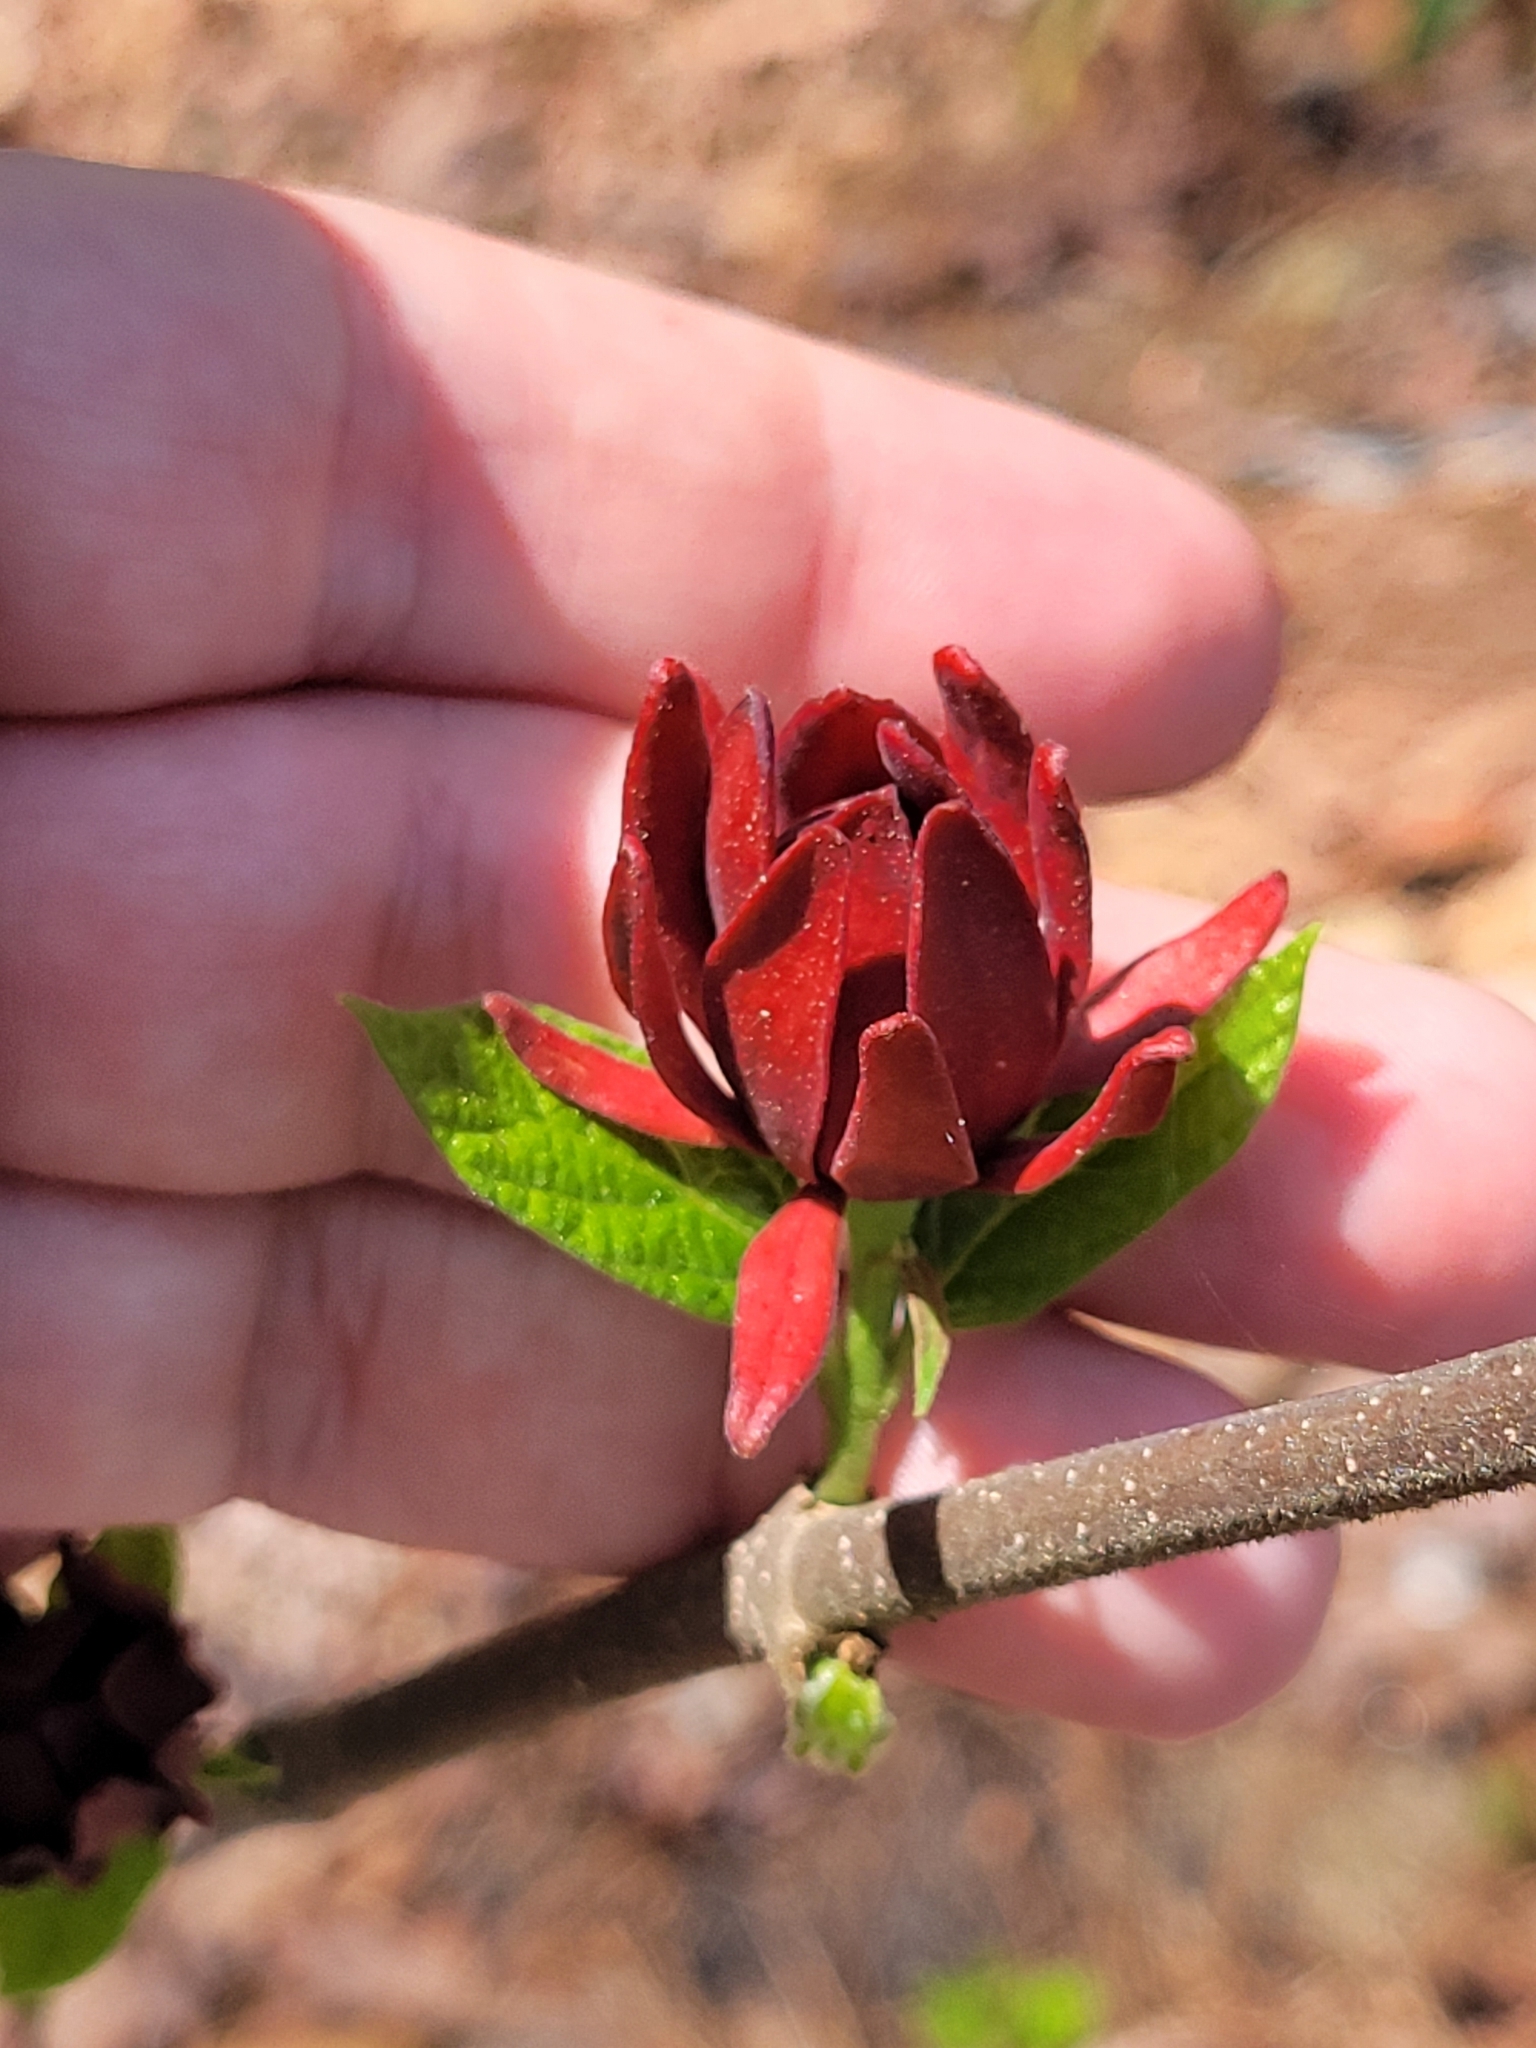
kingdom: Plantae
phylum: Tracheophyta
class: Magnoliopsida
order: Laurales
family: Calycanthaceae
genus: Calycanthus
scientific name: Calycanthus floridus
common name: Carolina-allspice
